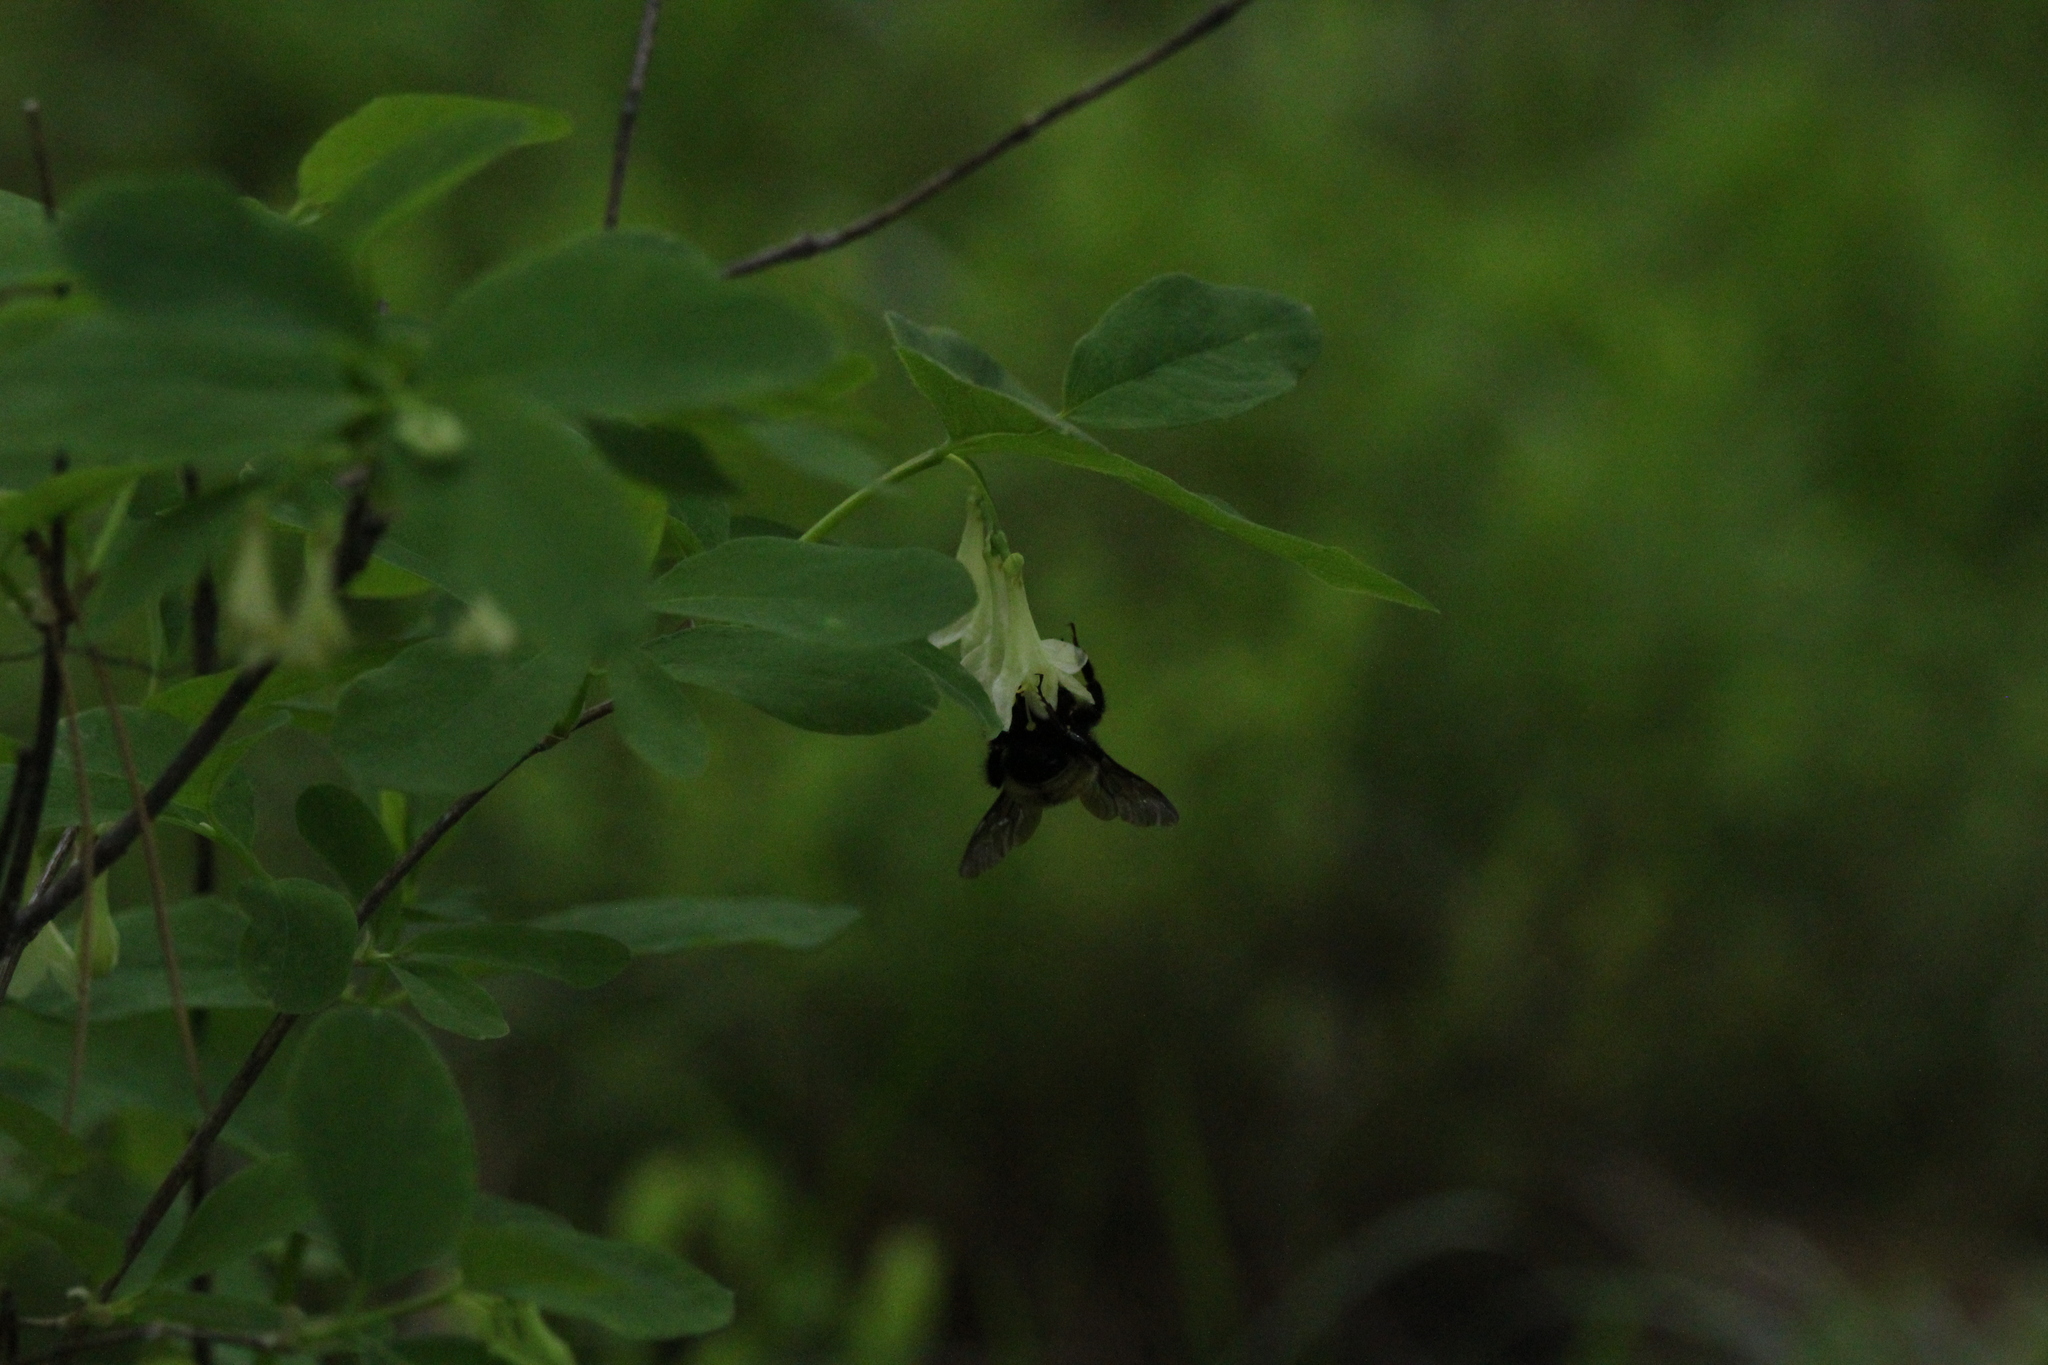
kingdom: Animalia
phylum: Arthropoda
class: Insecta
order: Hymenoptera
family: Apidae
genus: Bombus
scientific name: Bombus
